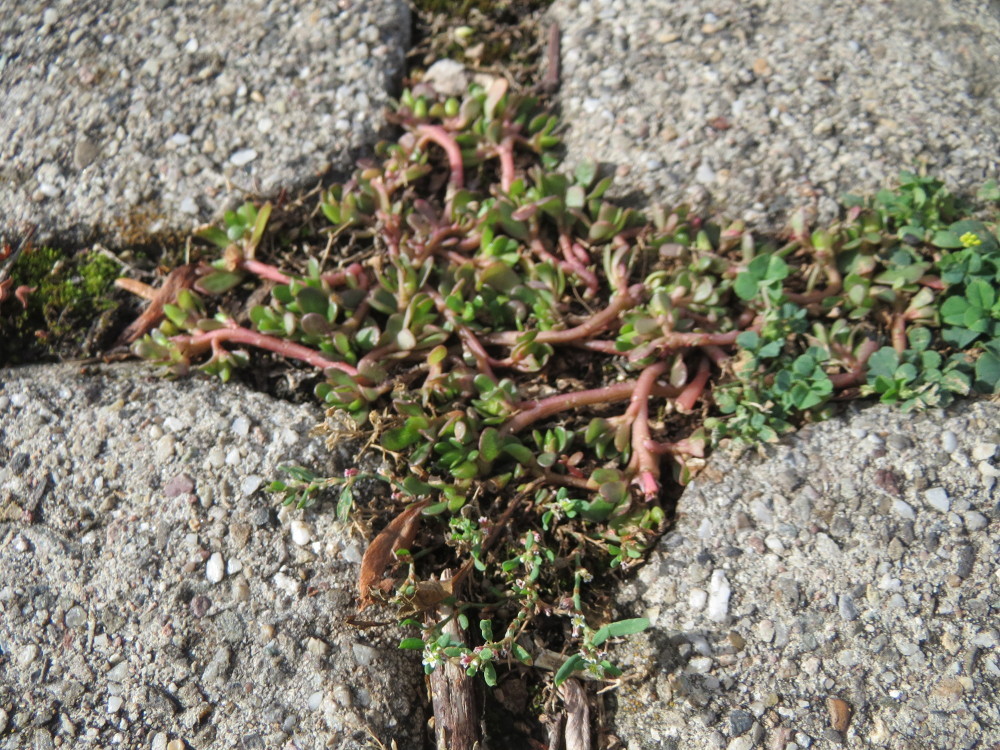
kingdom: Plantae
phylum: Tracheophyta
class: Magnoliopsida
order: Caryophyllales
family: Portulacaceae
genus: Portulaca
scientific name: Portulaca oleracea
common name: Common purslane
